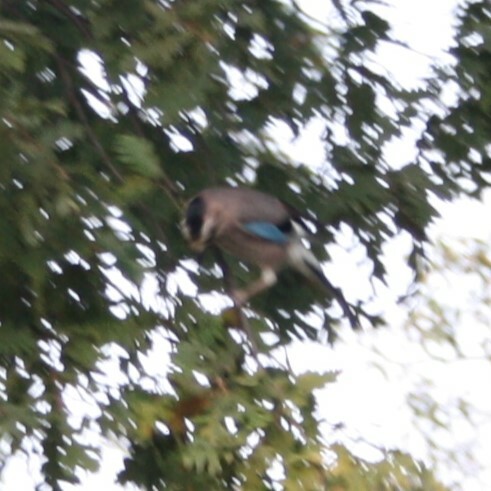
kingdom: Animalia
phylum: Chordata
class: Aves
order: Passeriformes
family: Corvidae
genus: Garrulus
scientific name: Garrulus glandarius
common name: Eurasian jay
